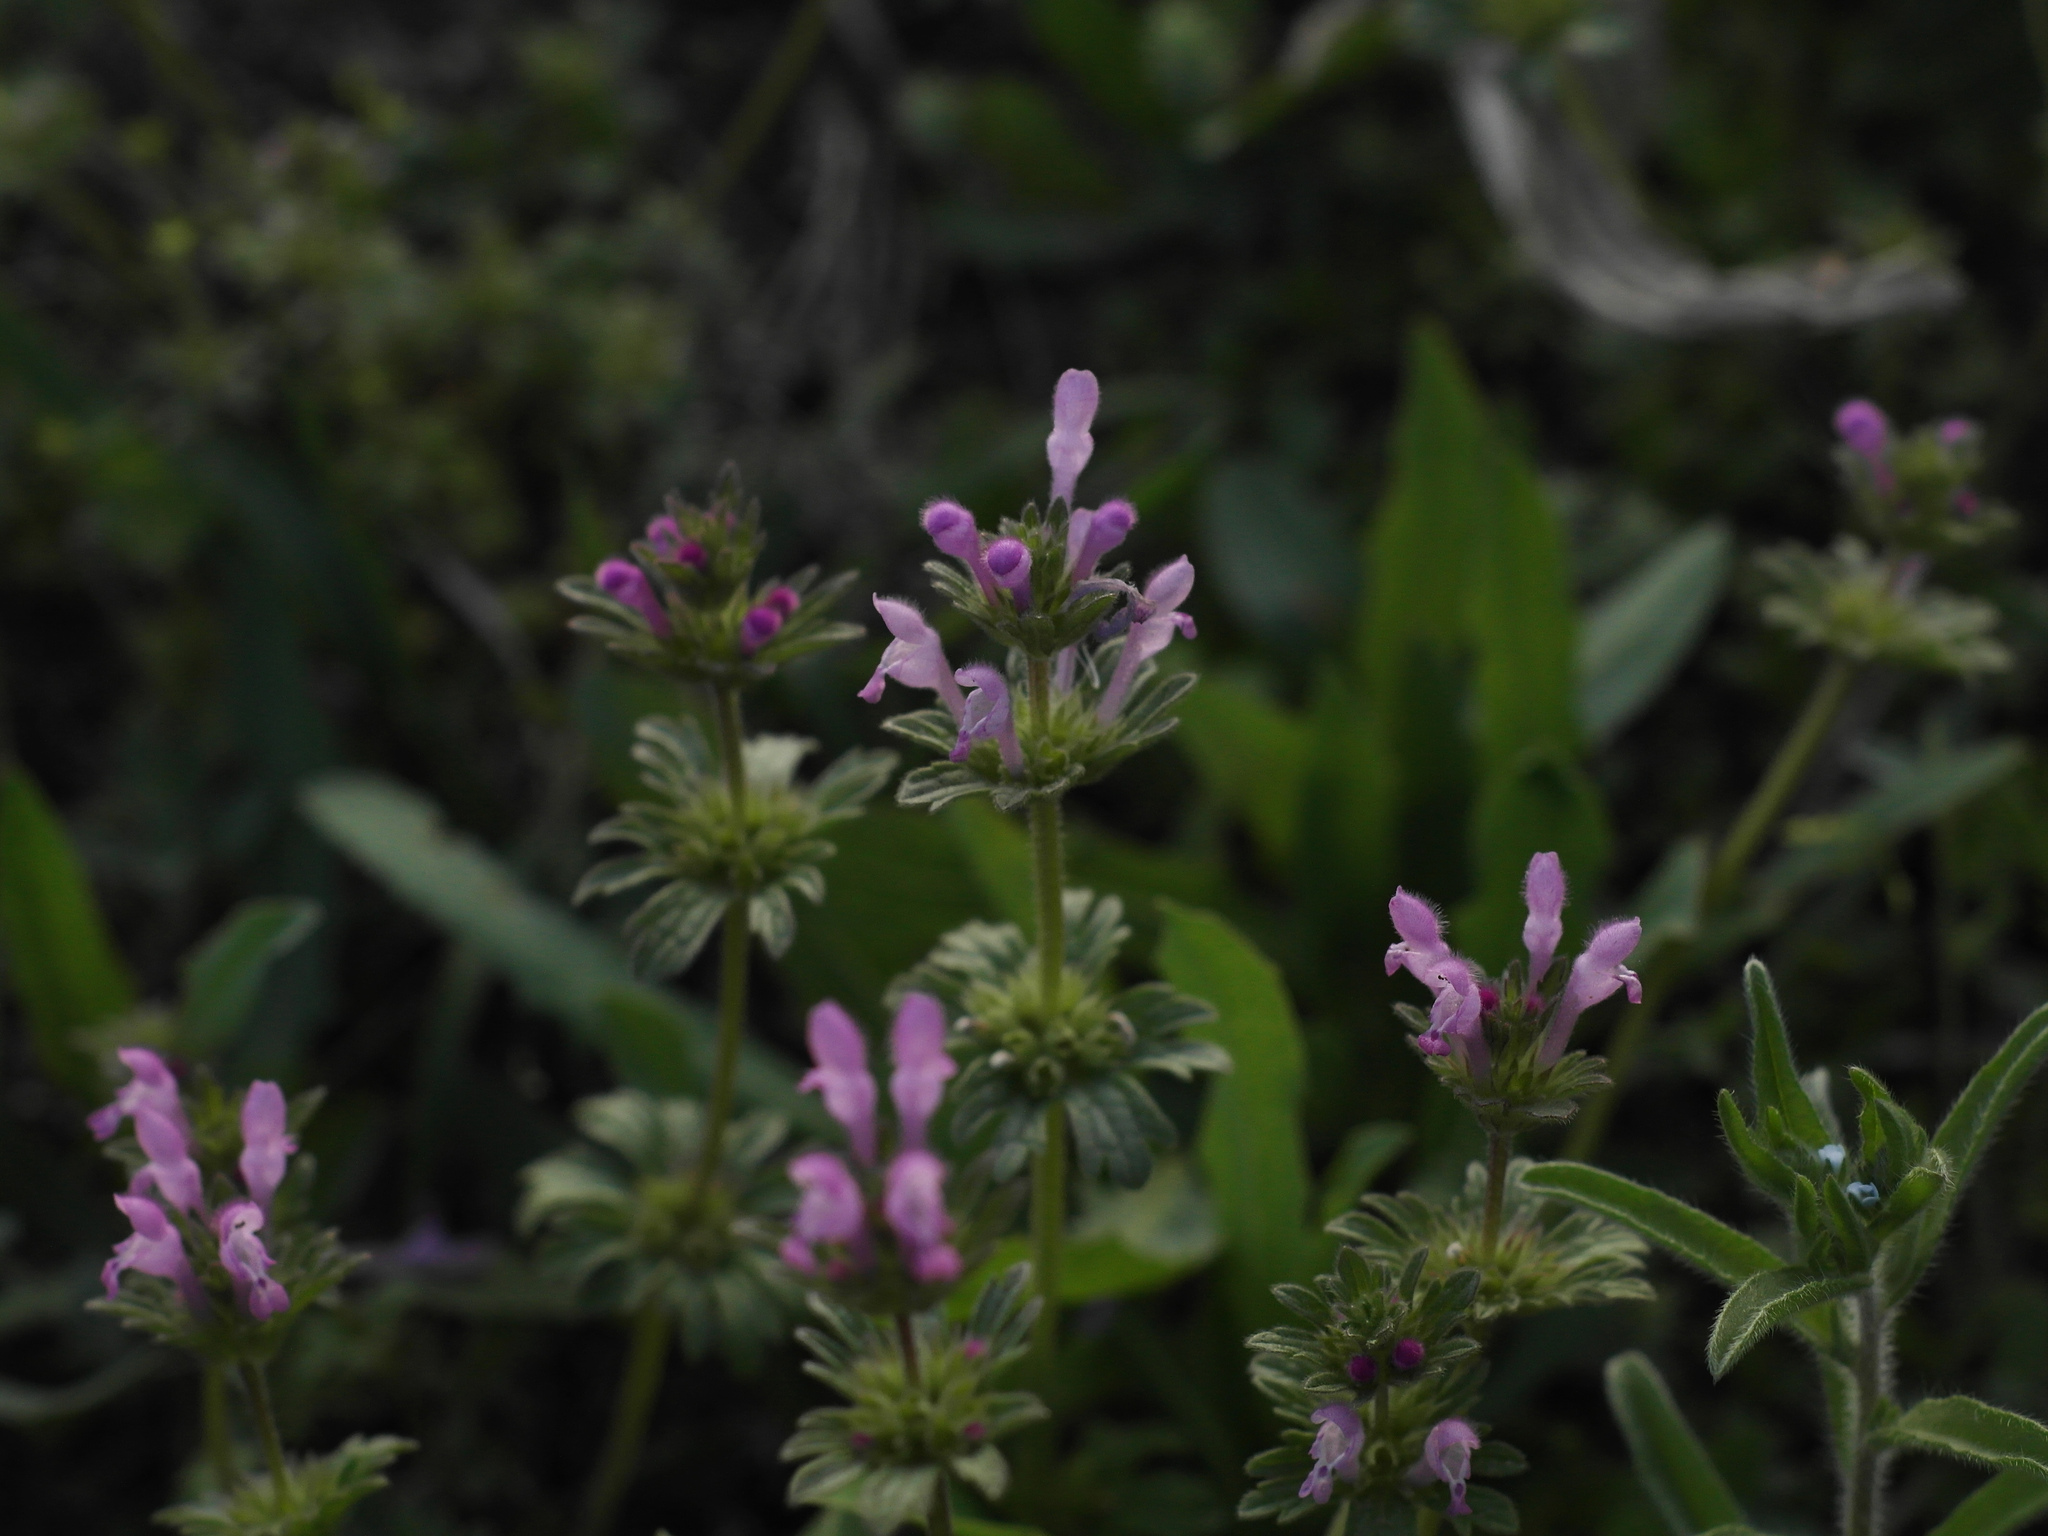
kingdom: Plantae
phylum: Tracheophyta
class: Magnoliopsida
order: Lamiales
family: Lamiaceae
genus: Lamium
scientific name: Lamium amplexicaule
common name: Henbit dead-nettle
